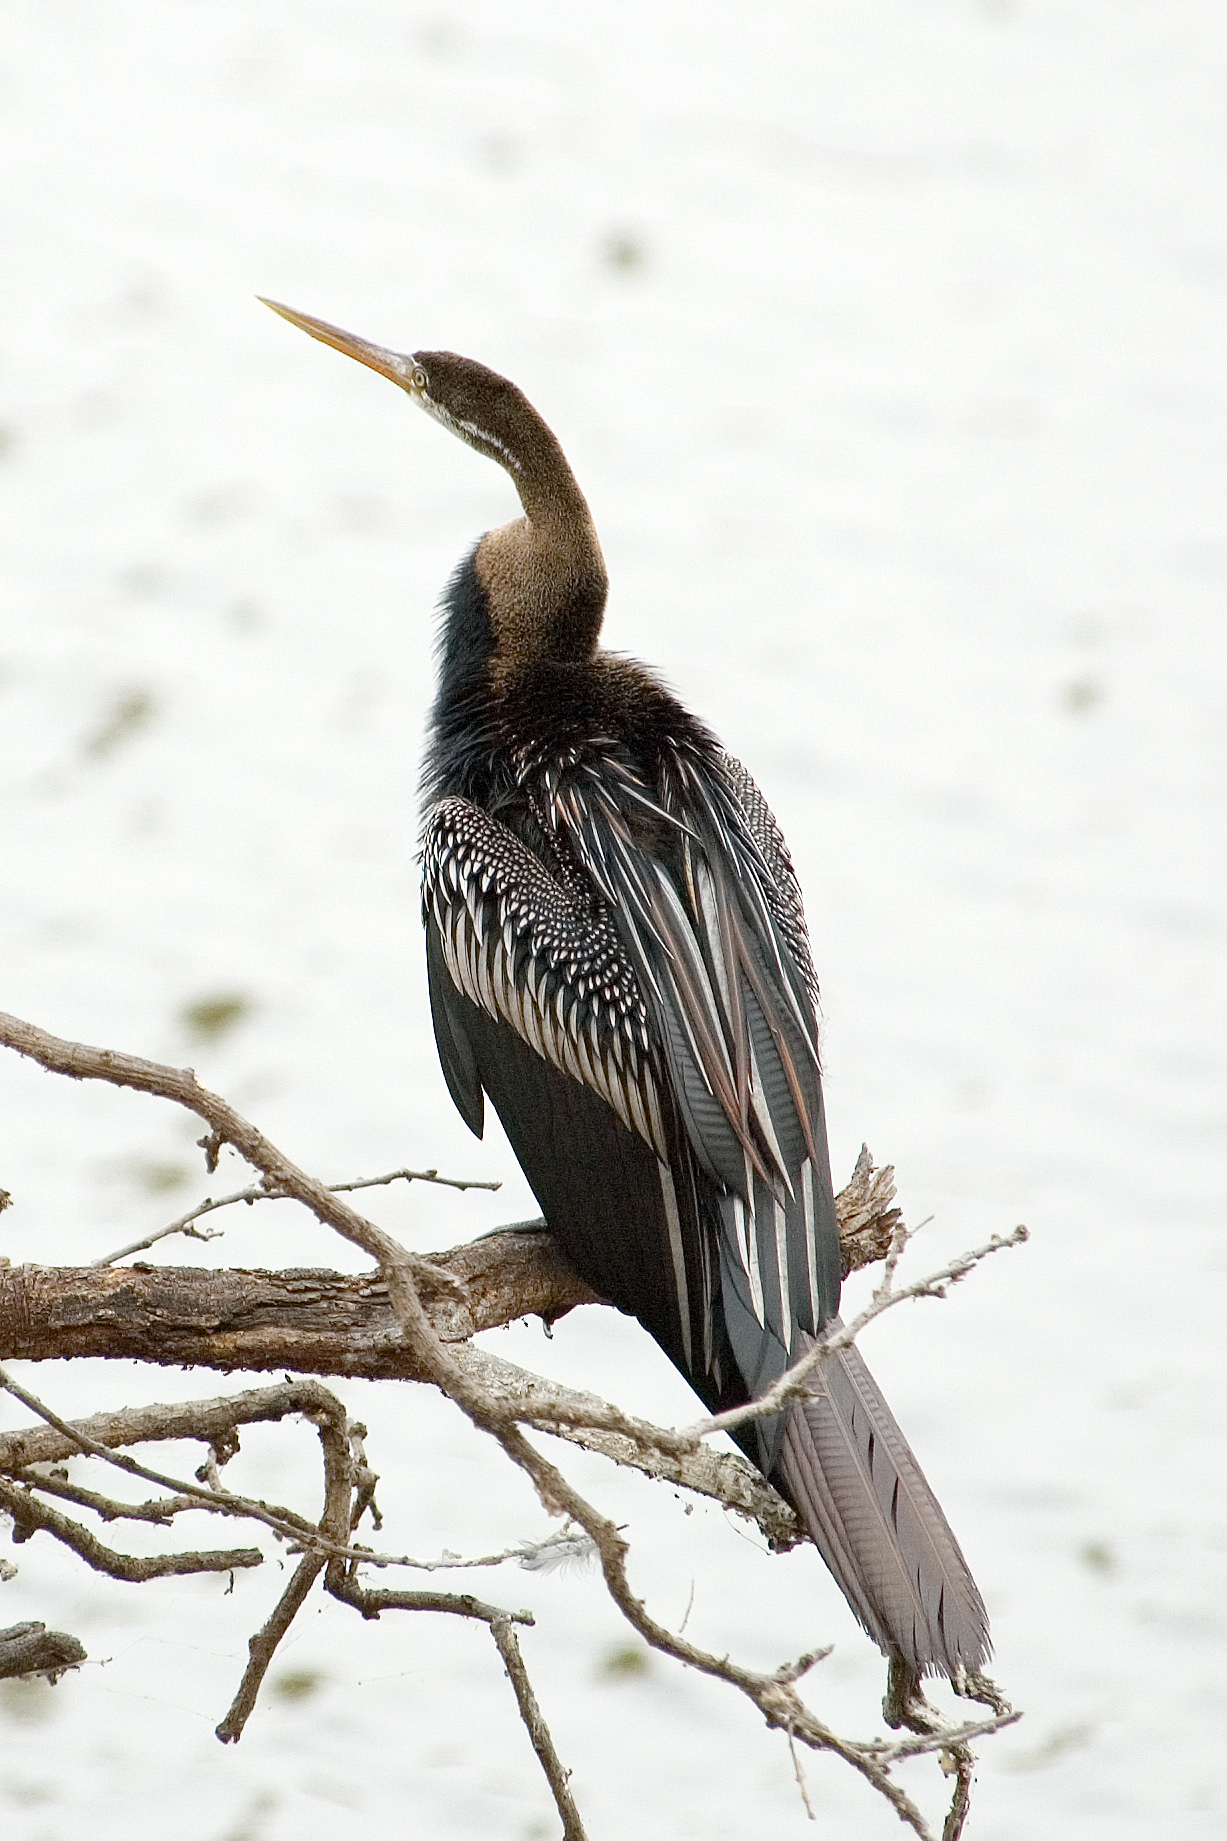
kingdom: Animalia
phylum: Chordata
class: Aves
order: Suliformes
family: Anhingidae
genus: Anhinga
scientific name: Anhinga melanogaster
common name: Oriental darter
